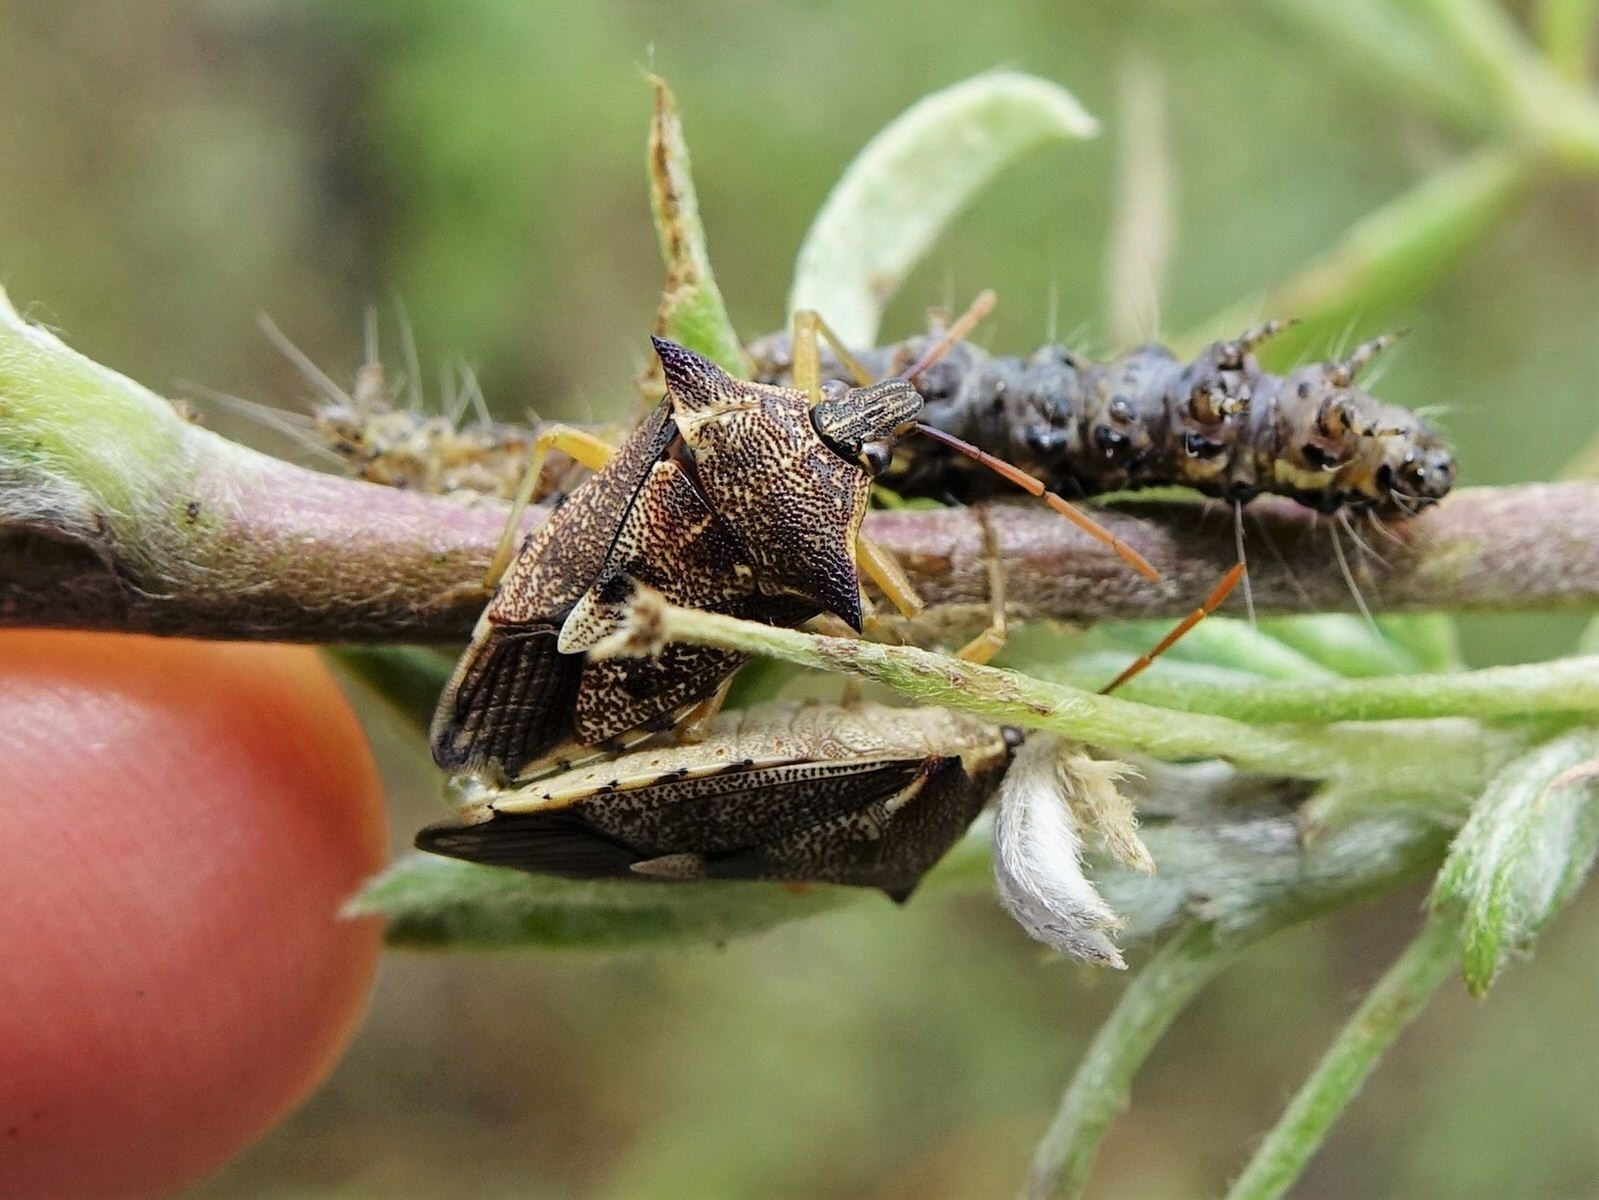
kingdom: Animalia
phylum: Arthropoda
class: Insecta
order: Hemiptera
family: Pentatomidae
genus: Oechalia
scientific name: Oechalia schellenbergii
